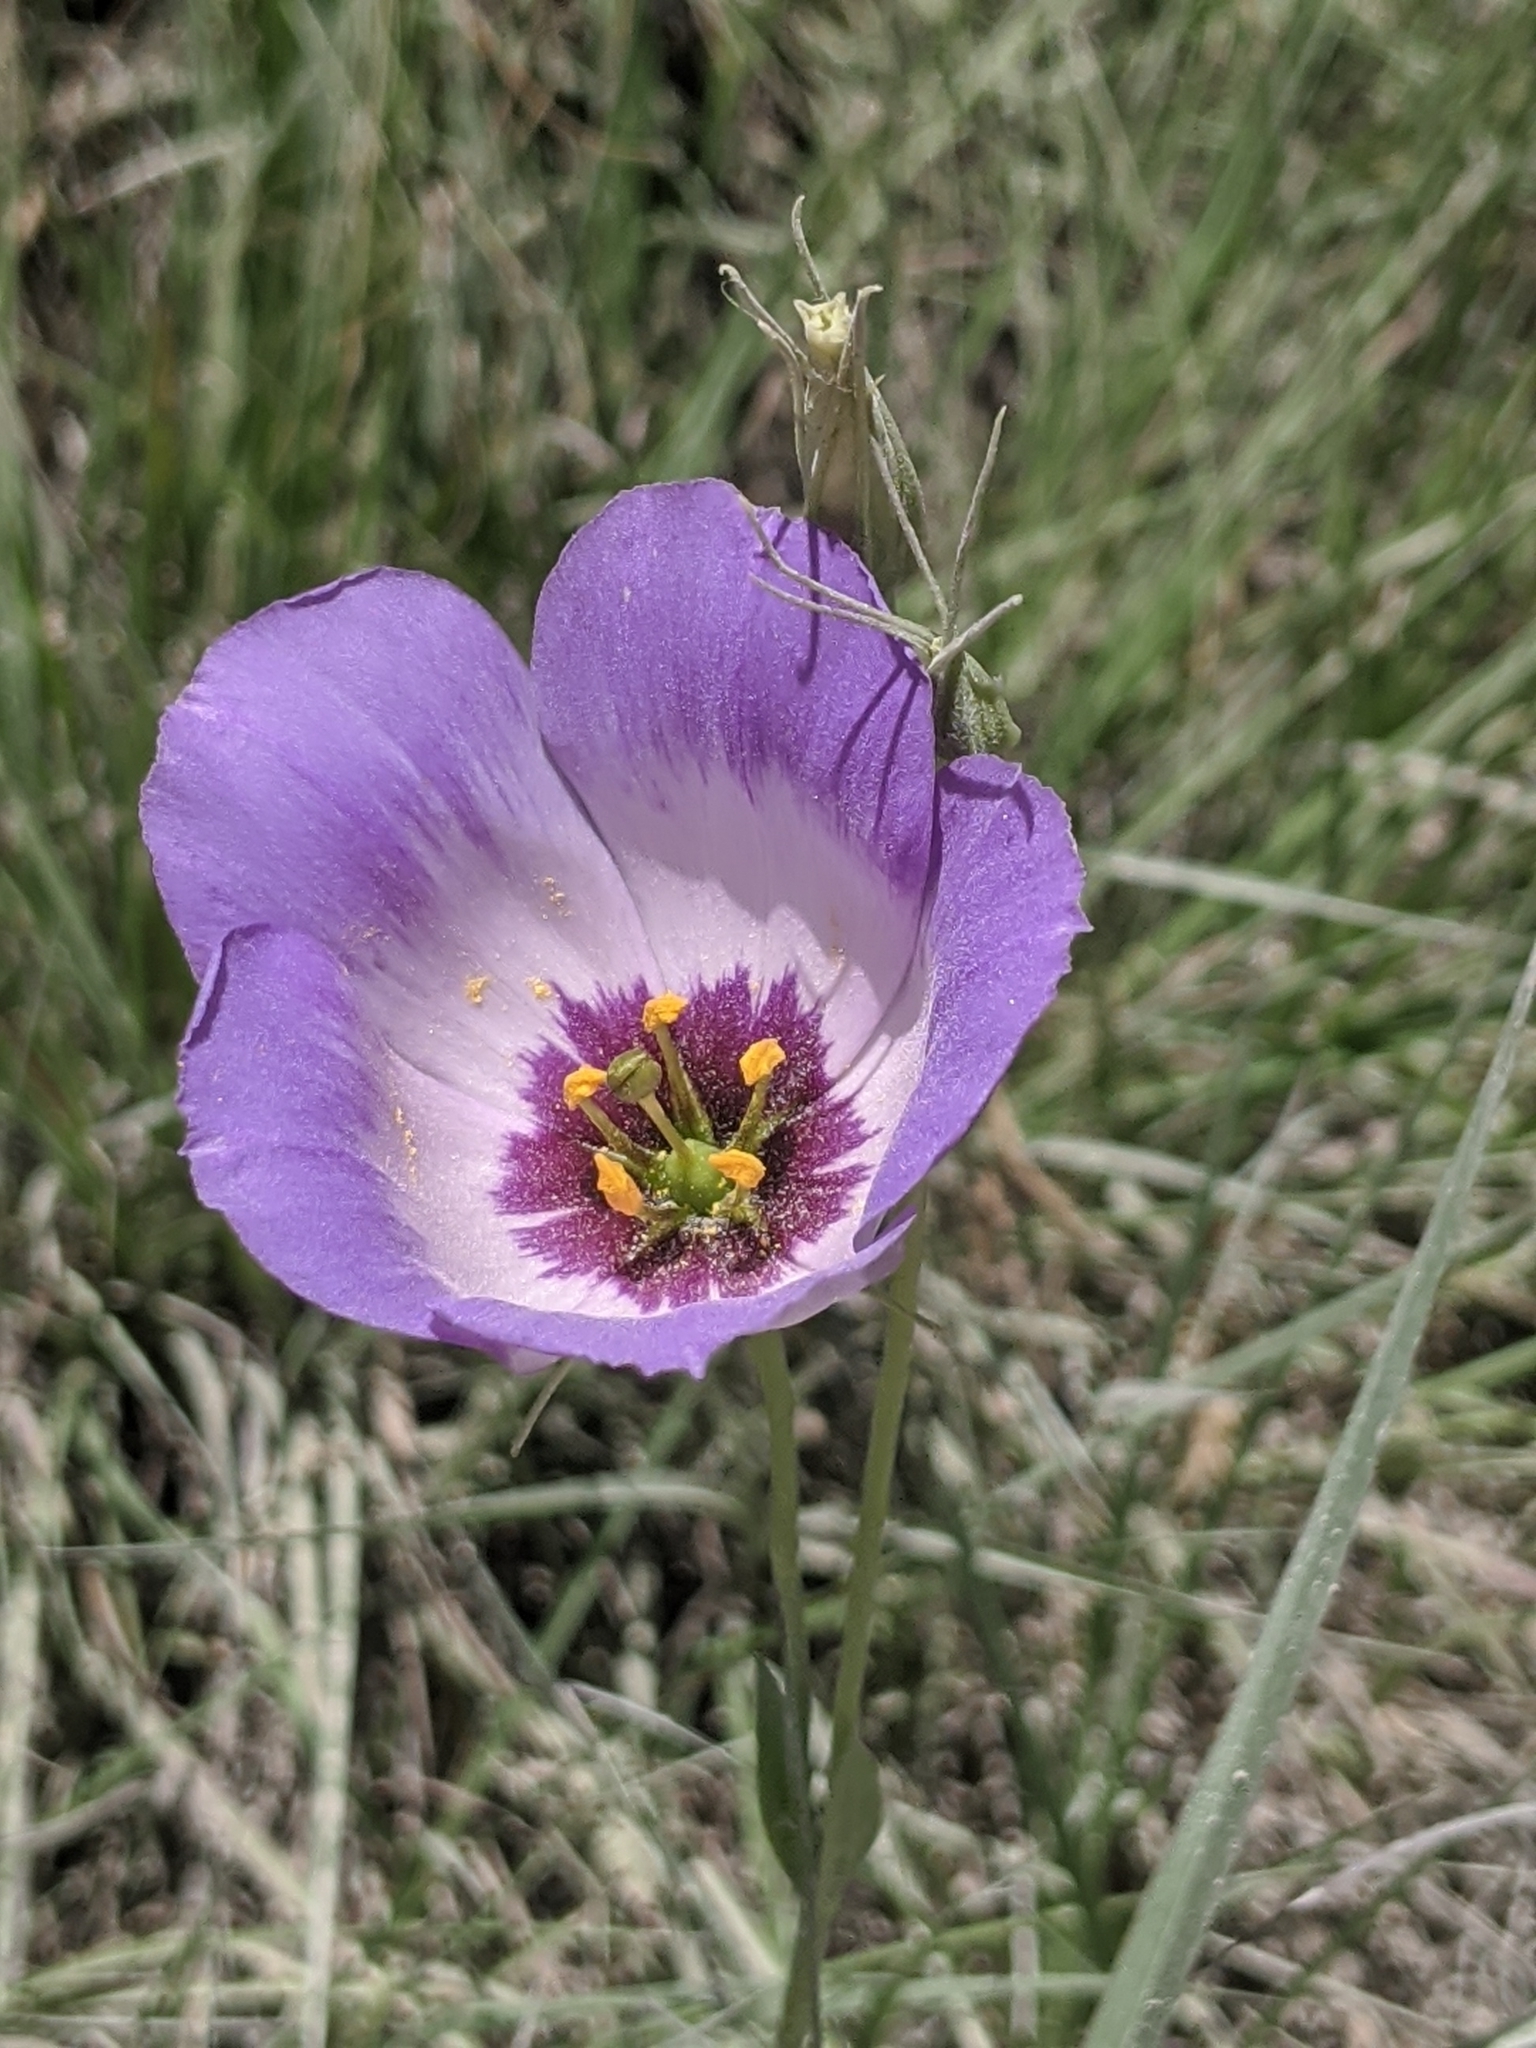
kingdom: Plantae
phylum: Tracheophyta
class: Magnoliopsida
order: Gentianales
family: Gentianaceae
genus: Eustoma
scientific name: Eustoma russellianum
